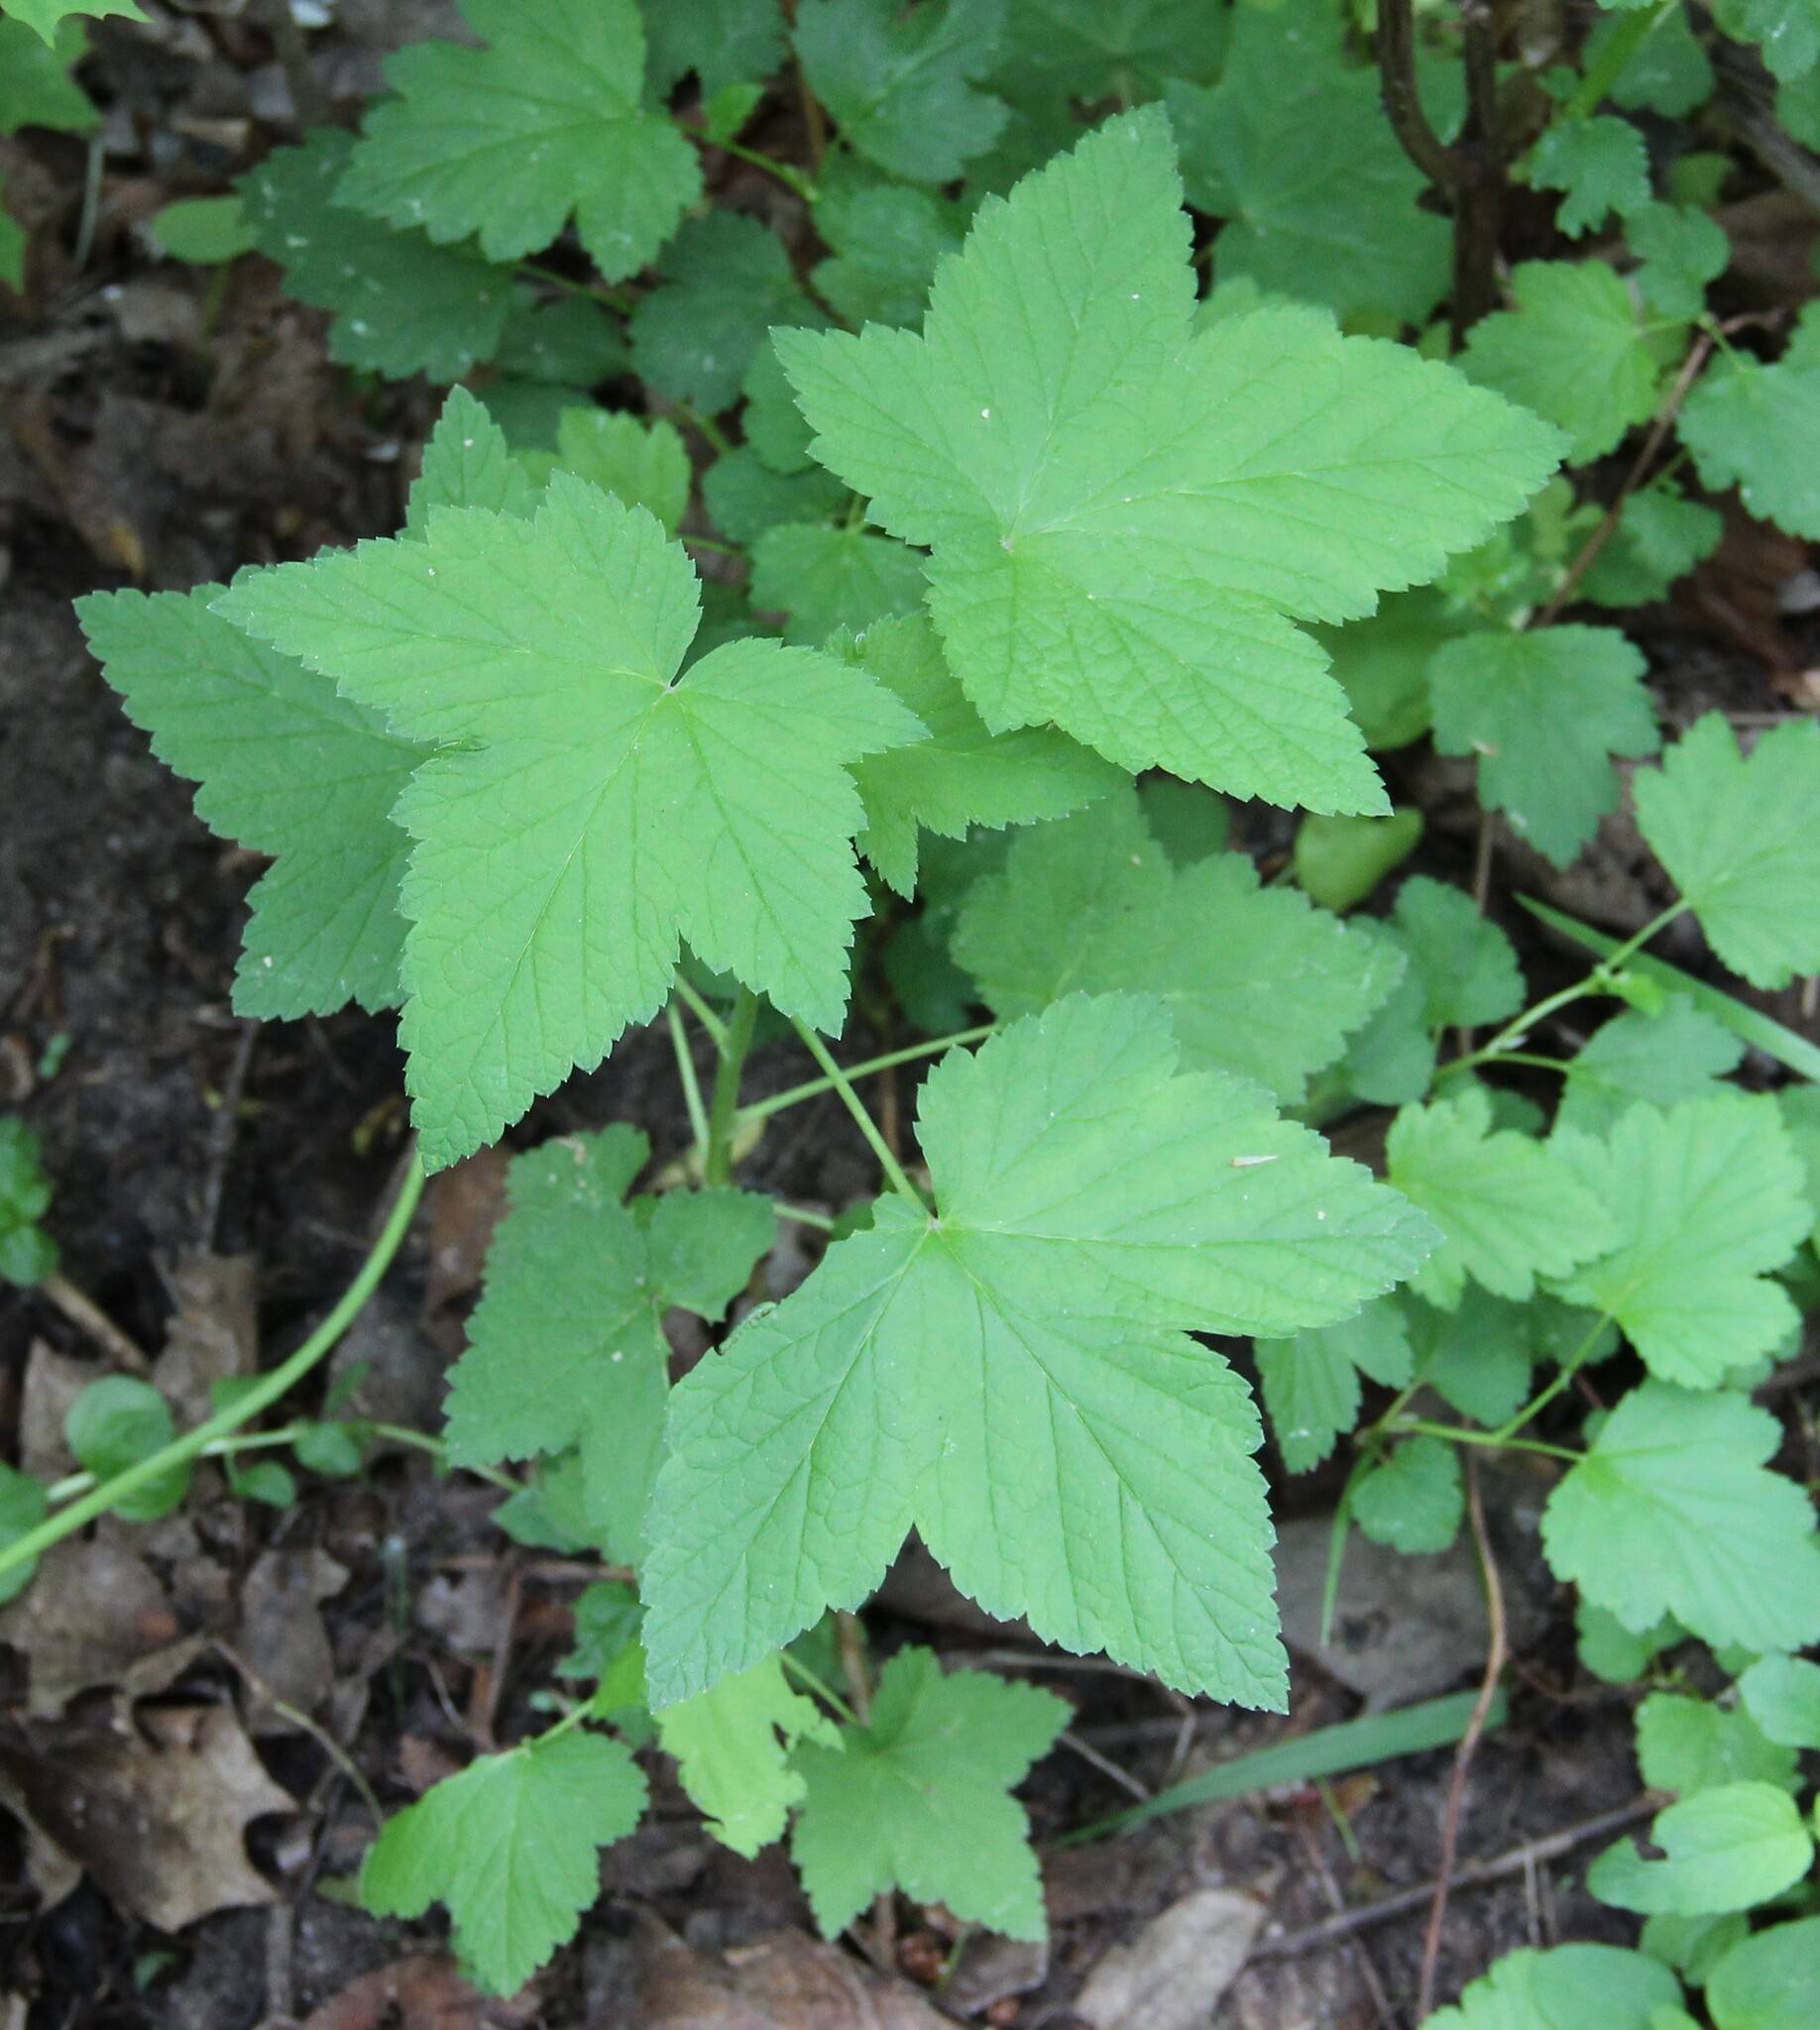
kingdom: Plantae
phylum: Tracheophyta
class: Magnoliopsida
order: Saxifragales
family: Grossulariaceae
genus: Ribes
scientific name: Ribes nigrum
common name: Black currant
